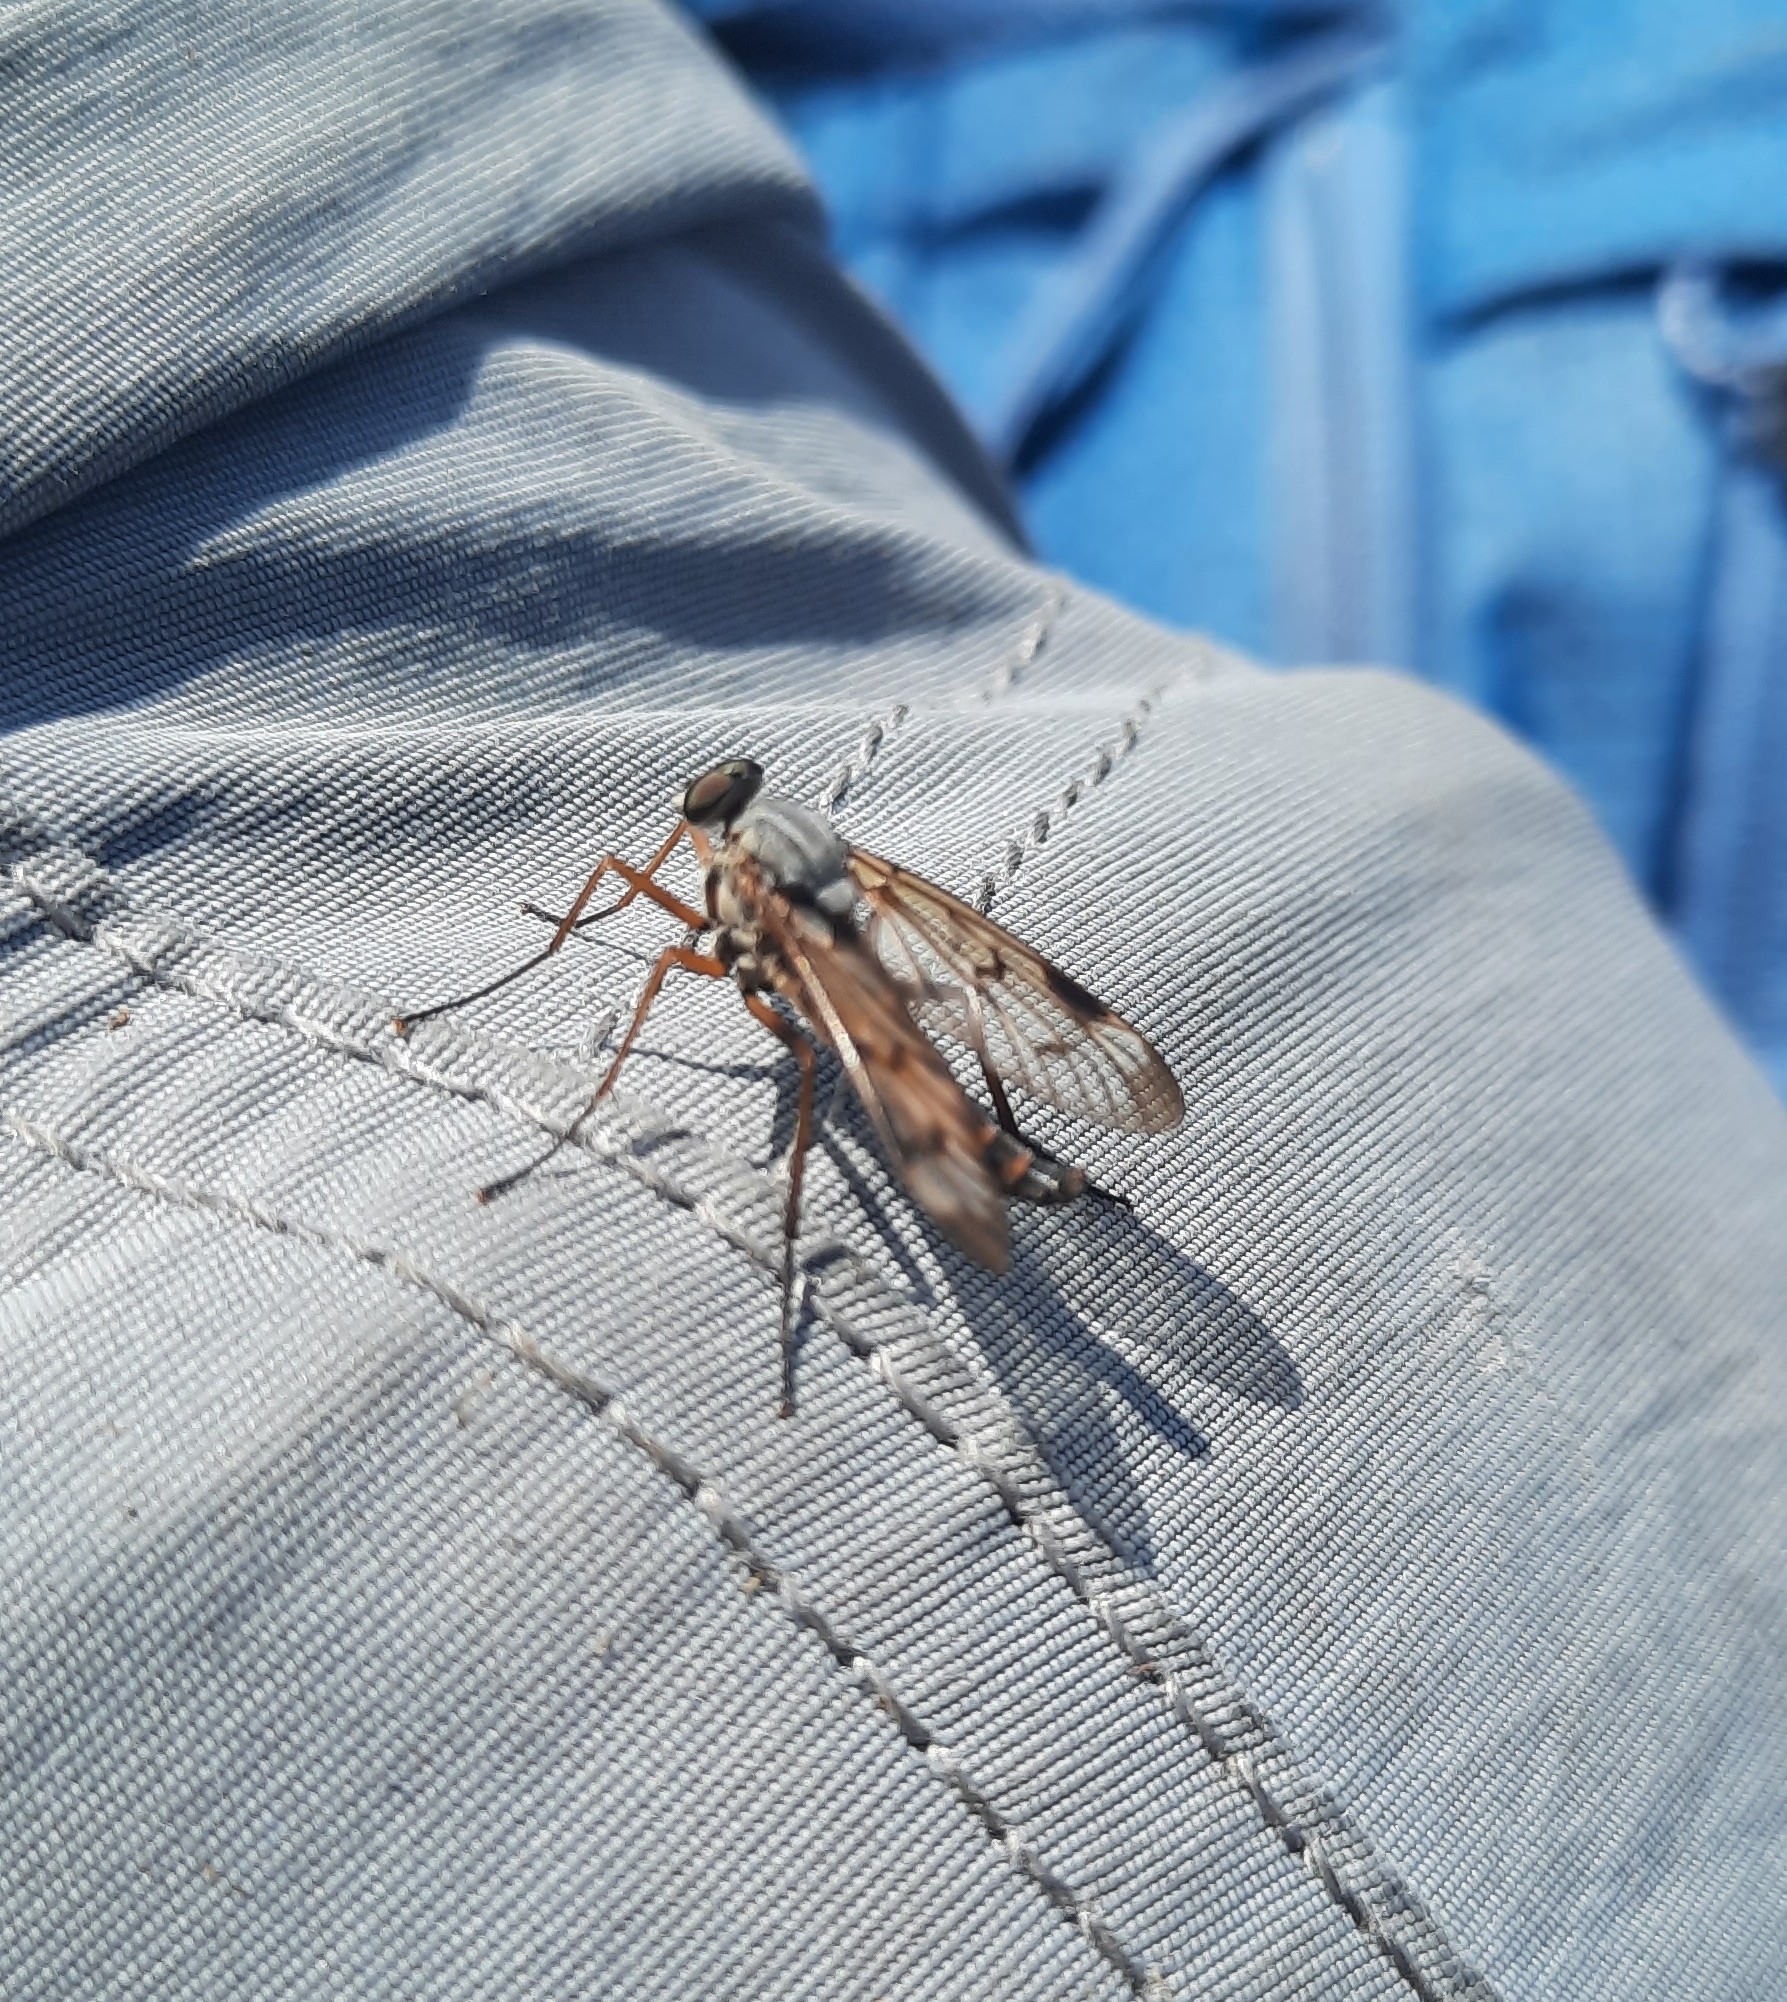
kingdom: Animalia
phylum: Arthropoda
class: Insecta
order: Diptera
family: Rhagionidae
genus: Rhagio
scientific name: Rhagio scolopacea
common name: Downlooker snipefly
